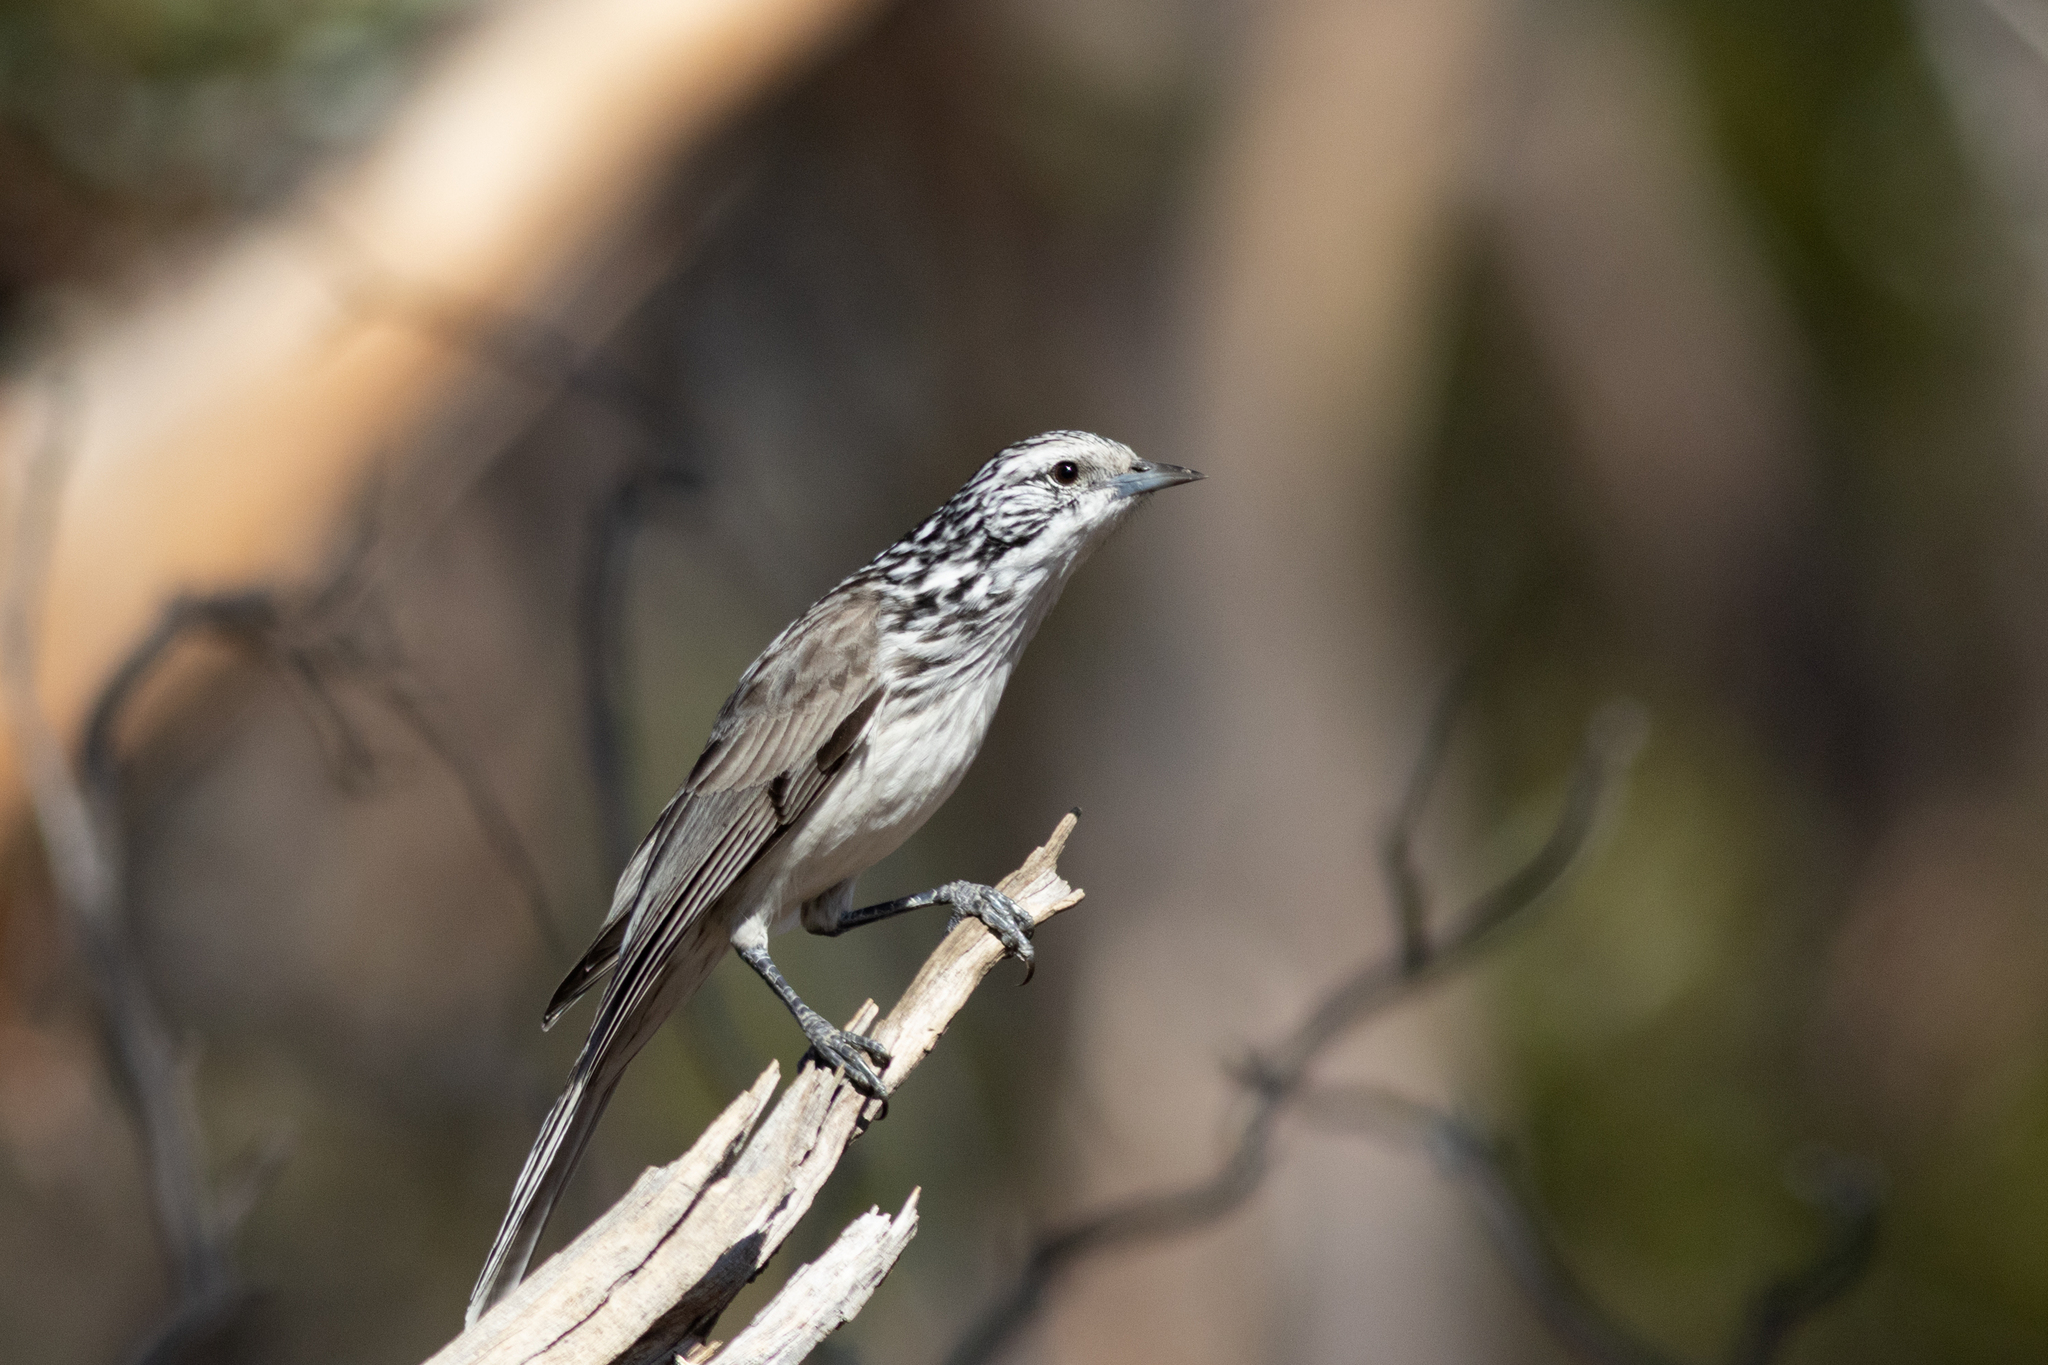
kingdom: Animalia
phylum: Chordata
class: Aves
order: Passeriformes
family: Meliphagidae
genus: Plectorhyncha
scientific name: Plectorhyncha lanceolata
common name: Striped honeyeater
